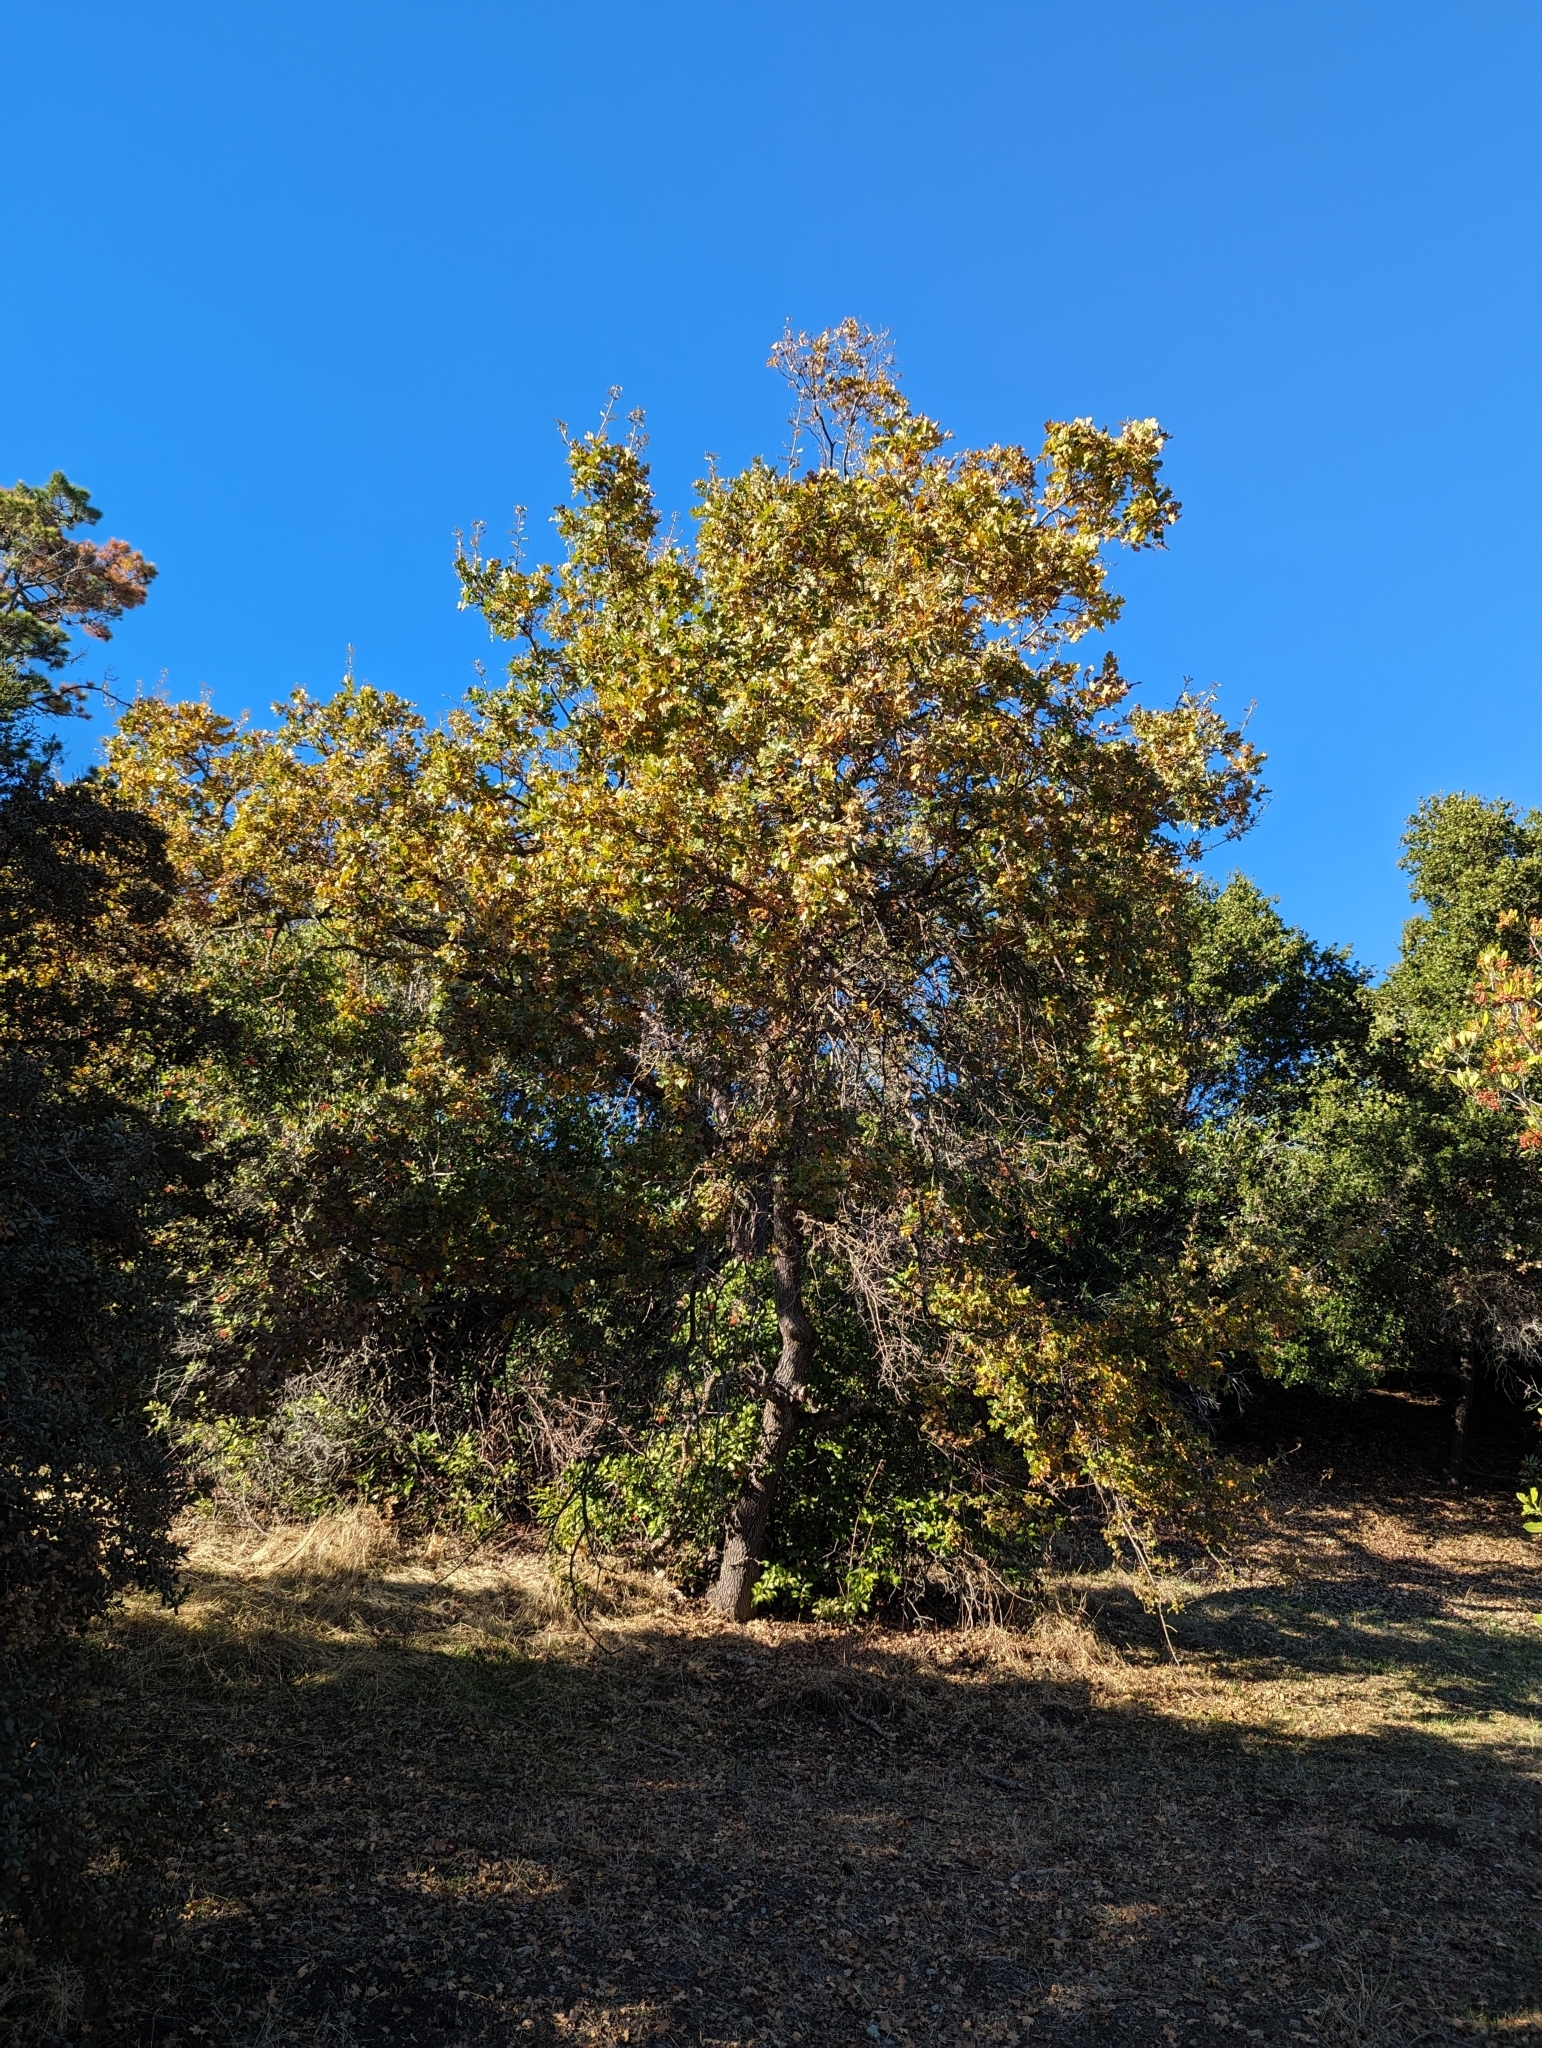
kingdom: Plantae
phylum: Tracheophyta
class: Magnoliopsida
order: Fagales
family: Fagaceae
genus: Quercus
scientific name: Quercus lobata
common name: Valley oak
